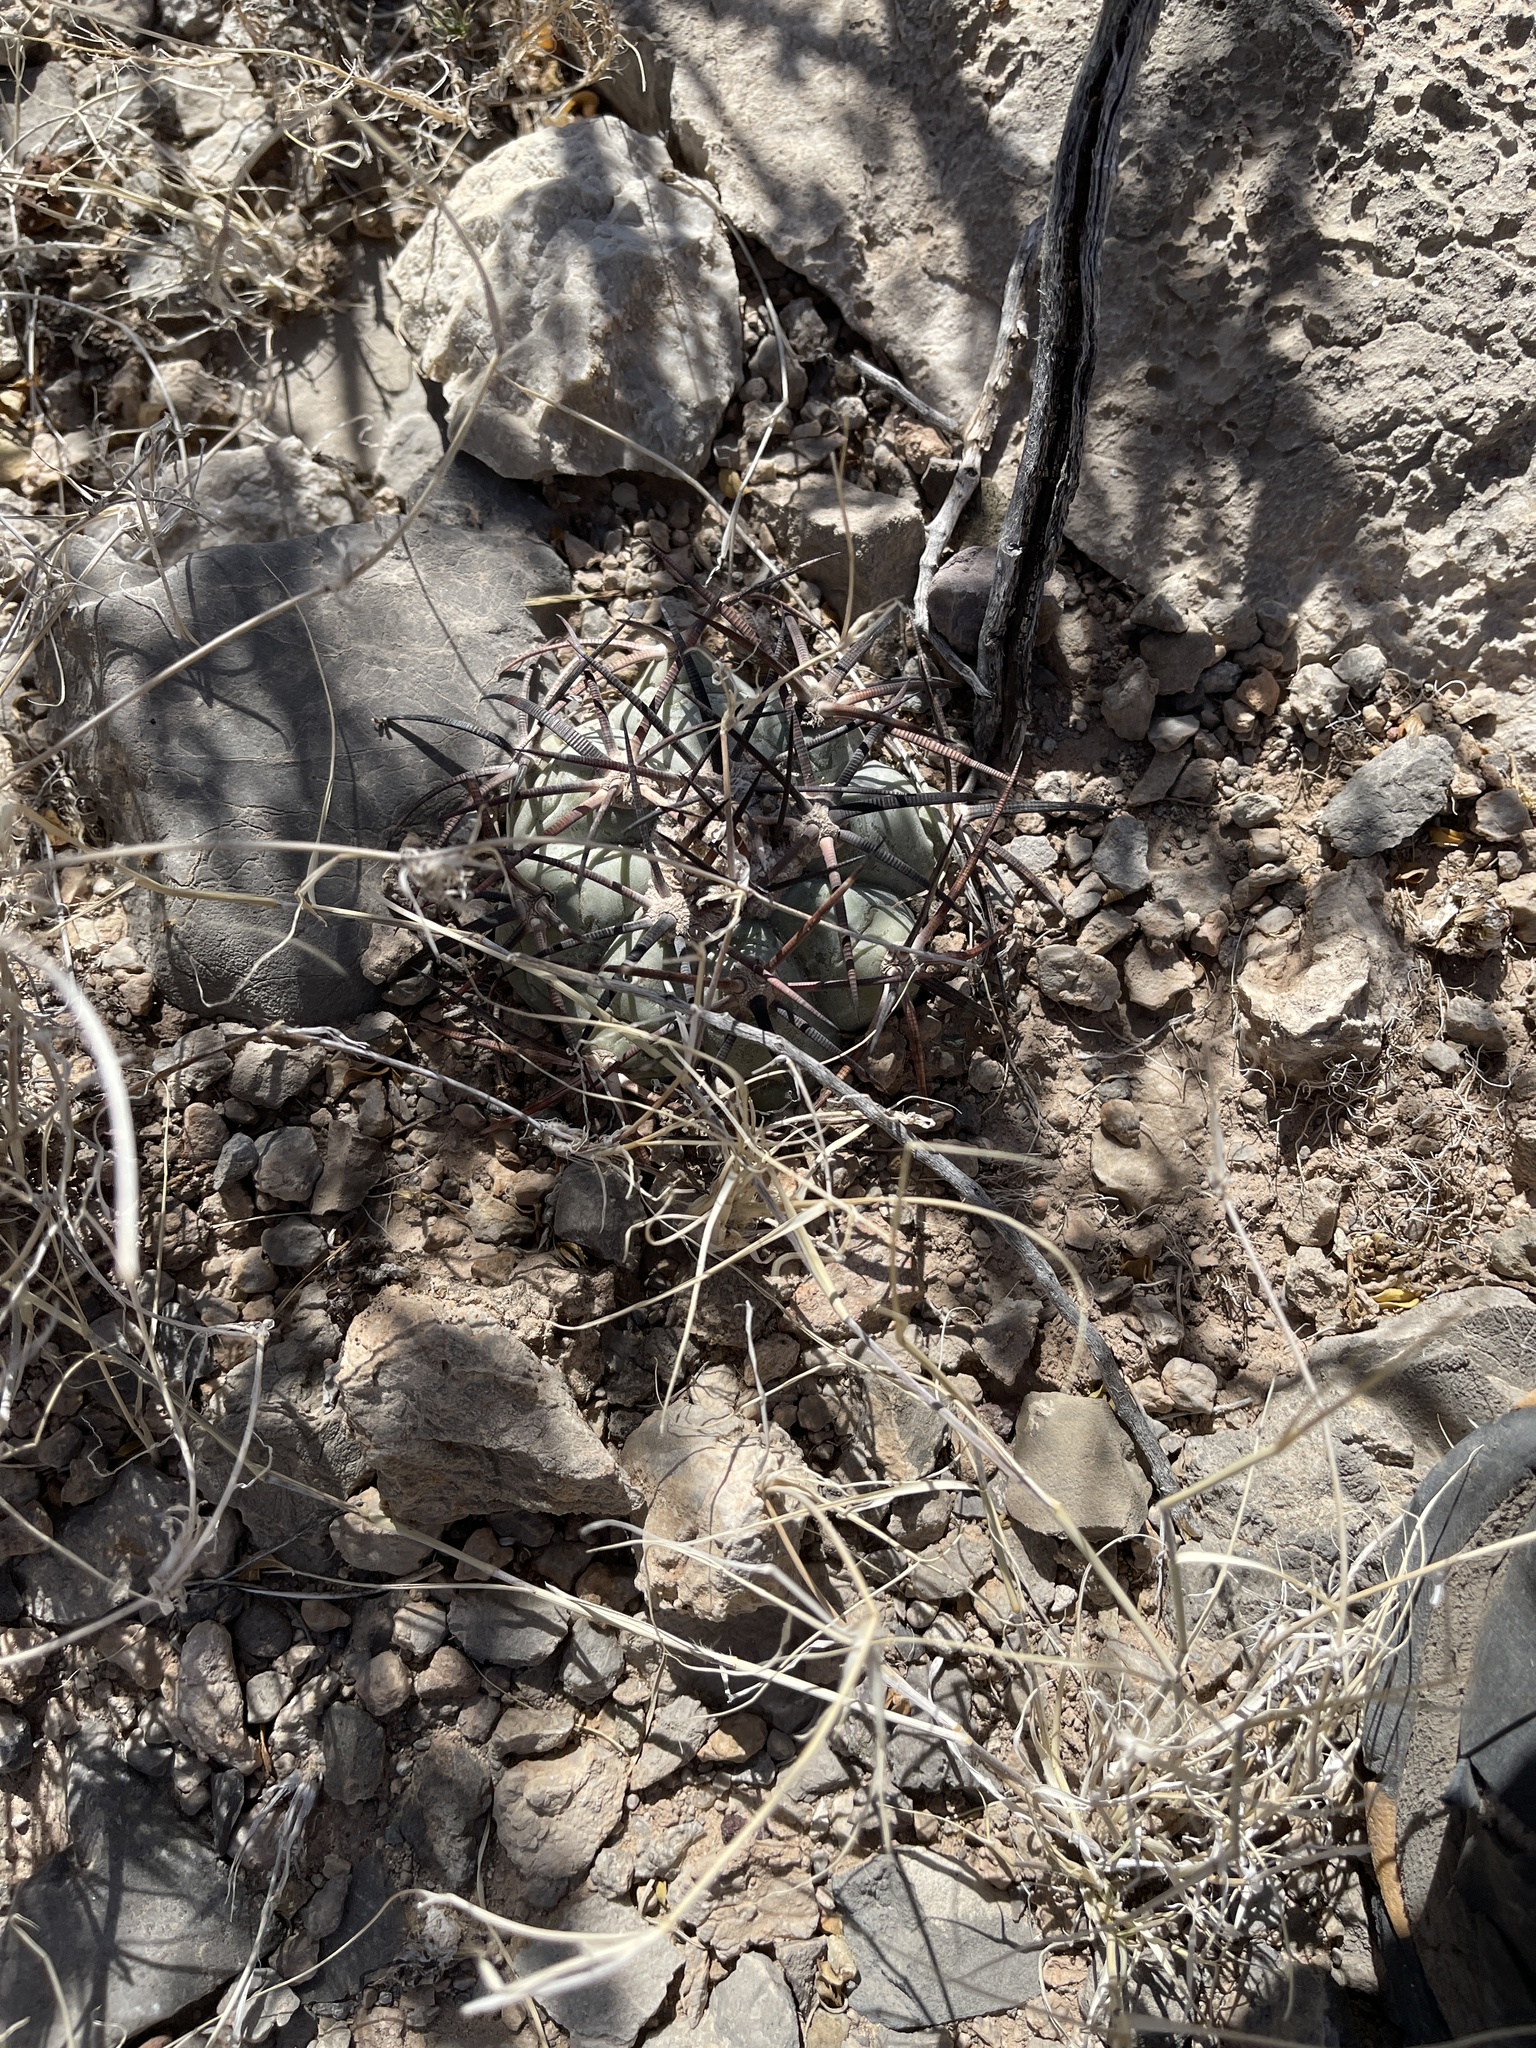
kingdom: Plantae
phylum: Tracheophyta
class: Magnoliopsida
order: Caryophyllales
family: Cactaceae
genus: Echinocactus
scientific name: Echinocactus horizonthalonius
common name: Devilshead
